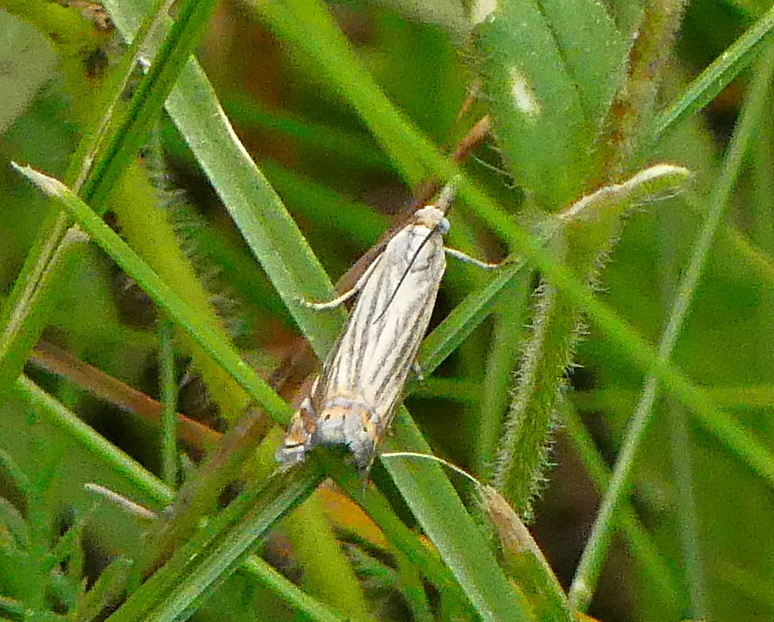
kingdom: Animalia
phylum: Arthropoda
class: Insecta
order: Lepidoptera
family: Crambidae
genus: Chrysoteuchia
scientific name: Chrysoteuchia topiarius
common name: Topiary grass-veneer
